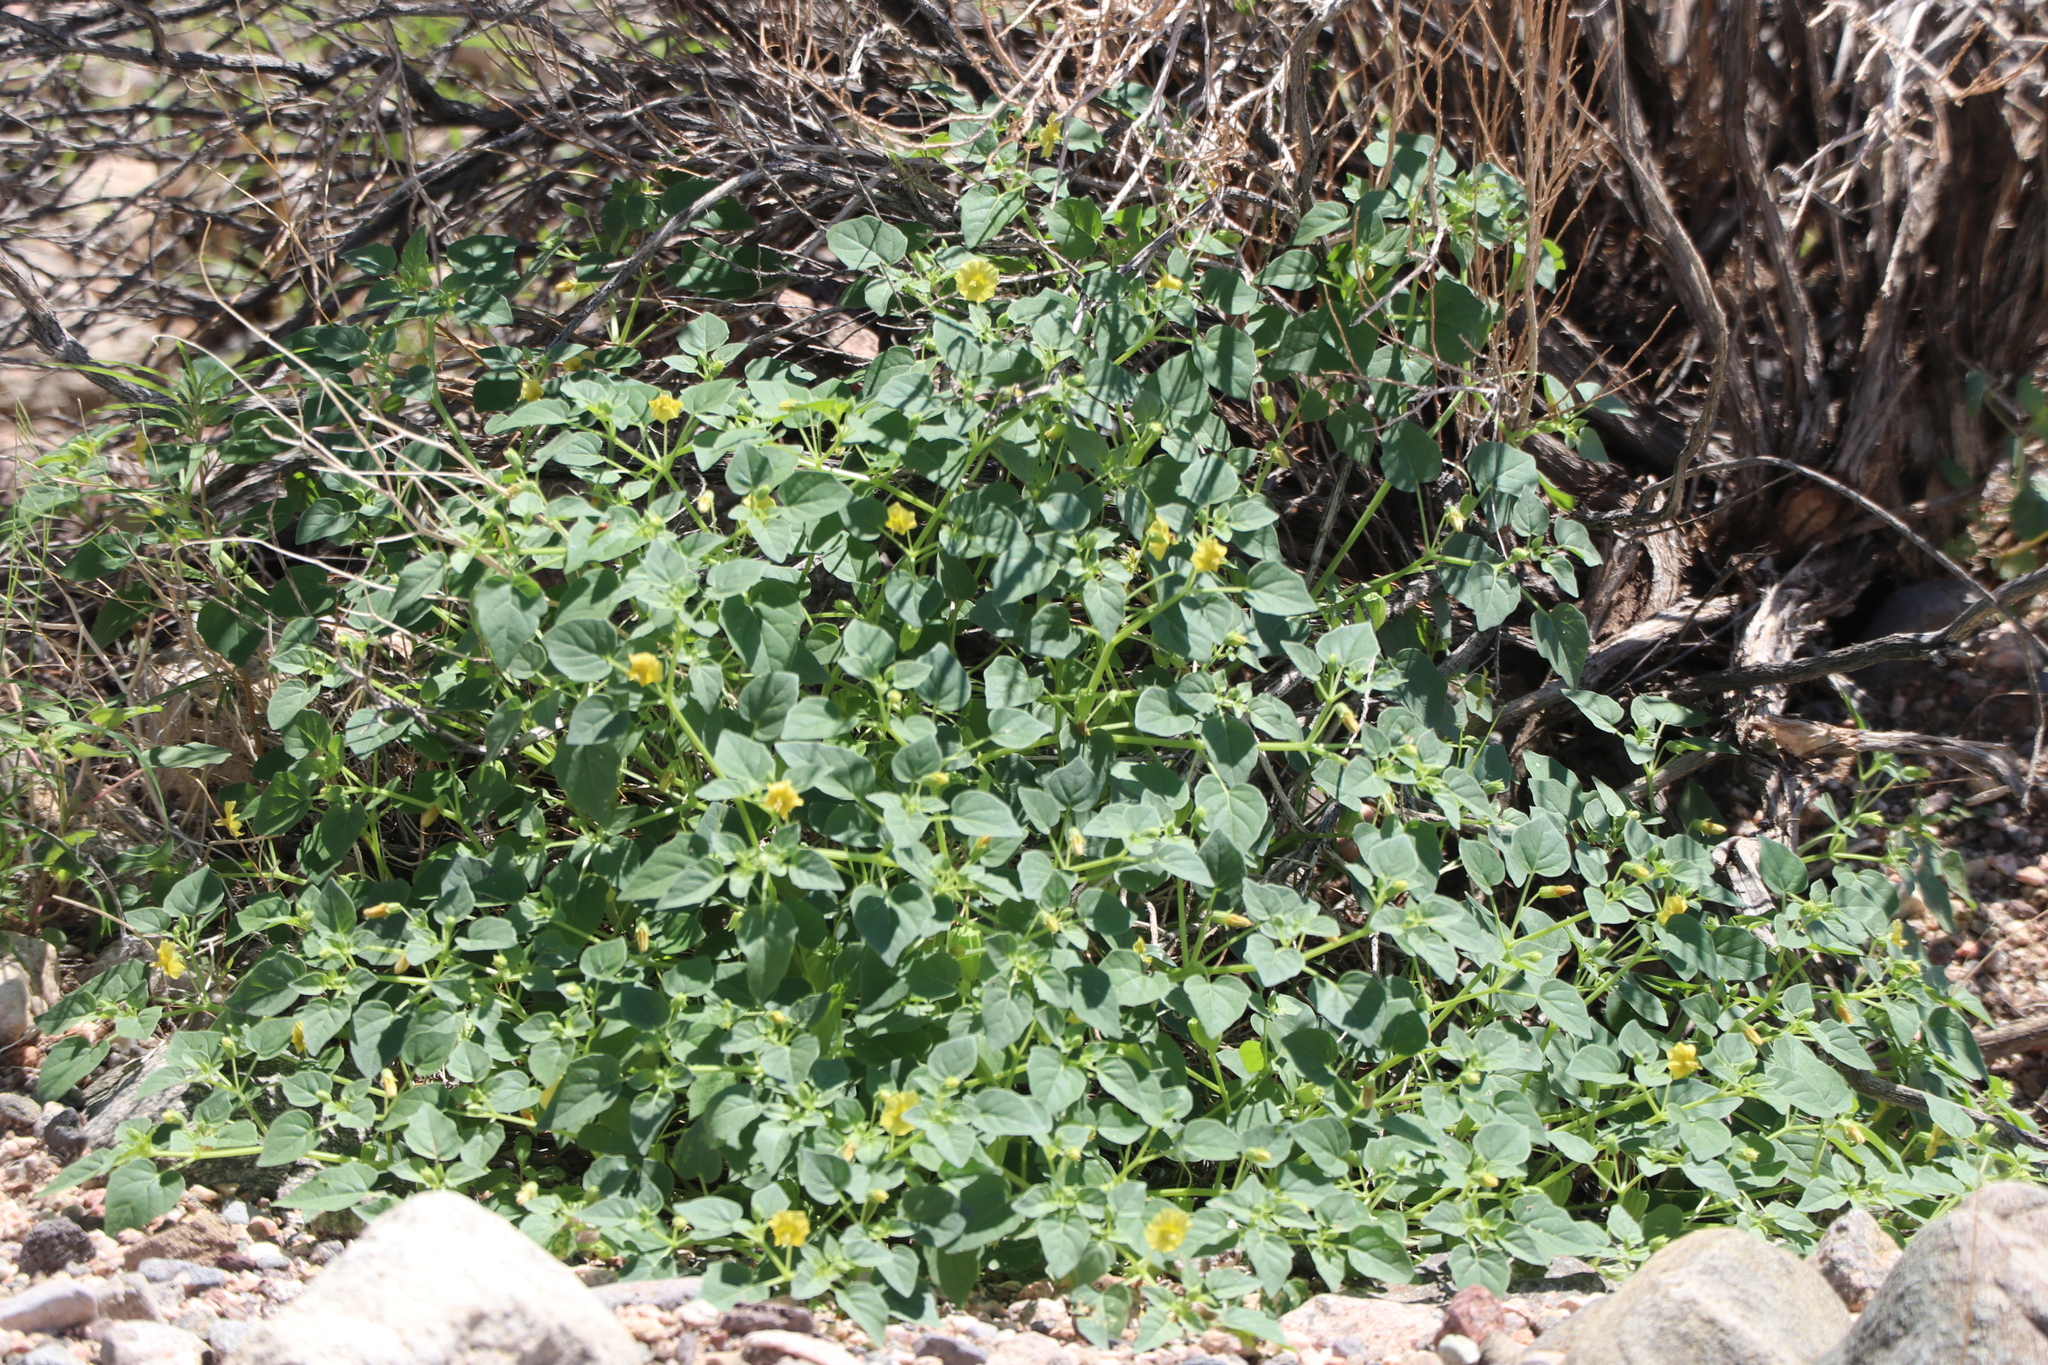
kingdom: Plantae
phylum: Tracheophyta
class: Magnoliopsida
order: Solanales
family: Solanaceae
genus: Physalis
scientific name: Physalis crassifolia
